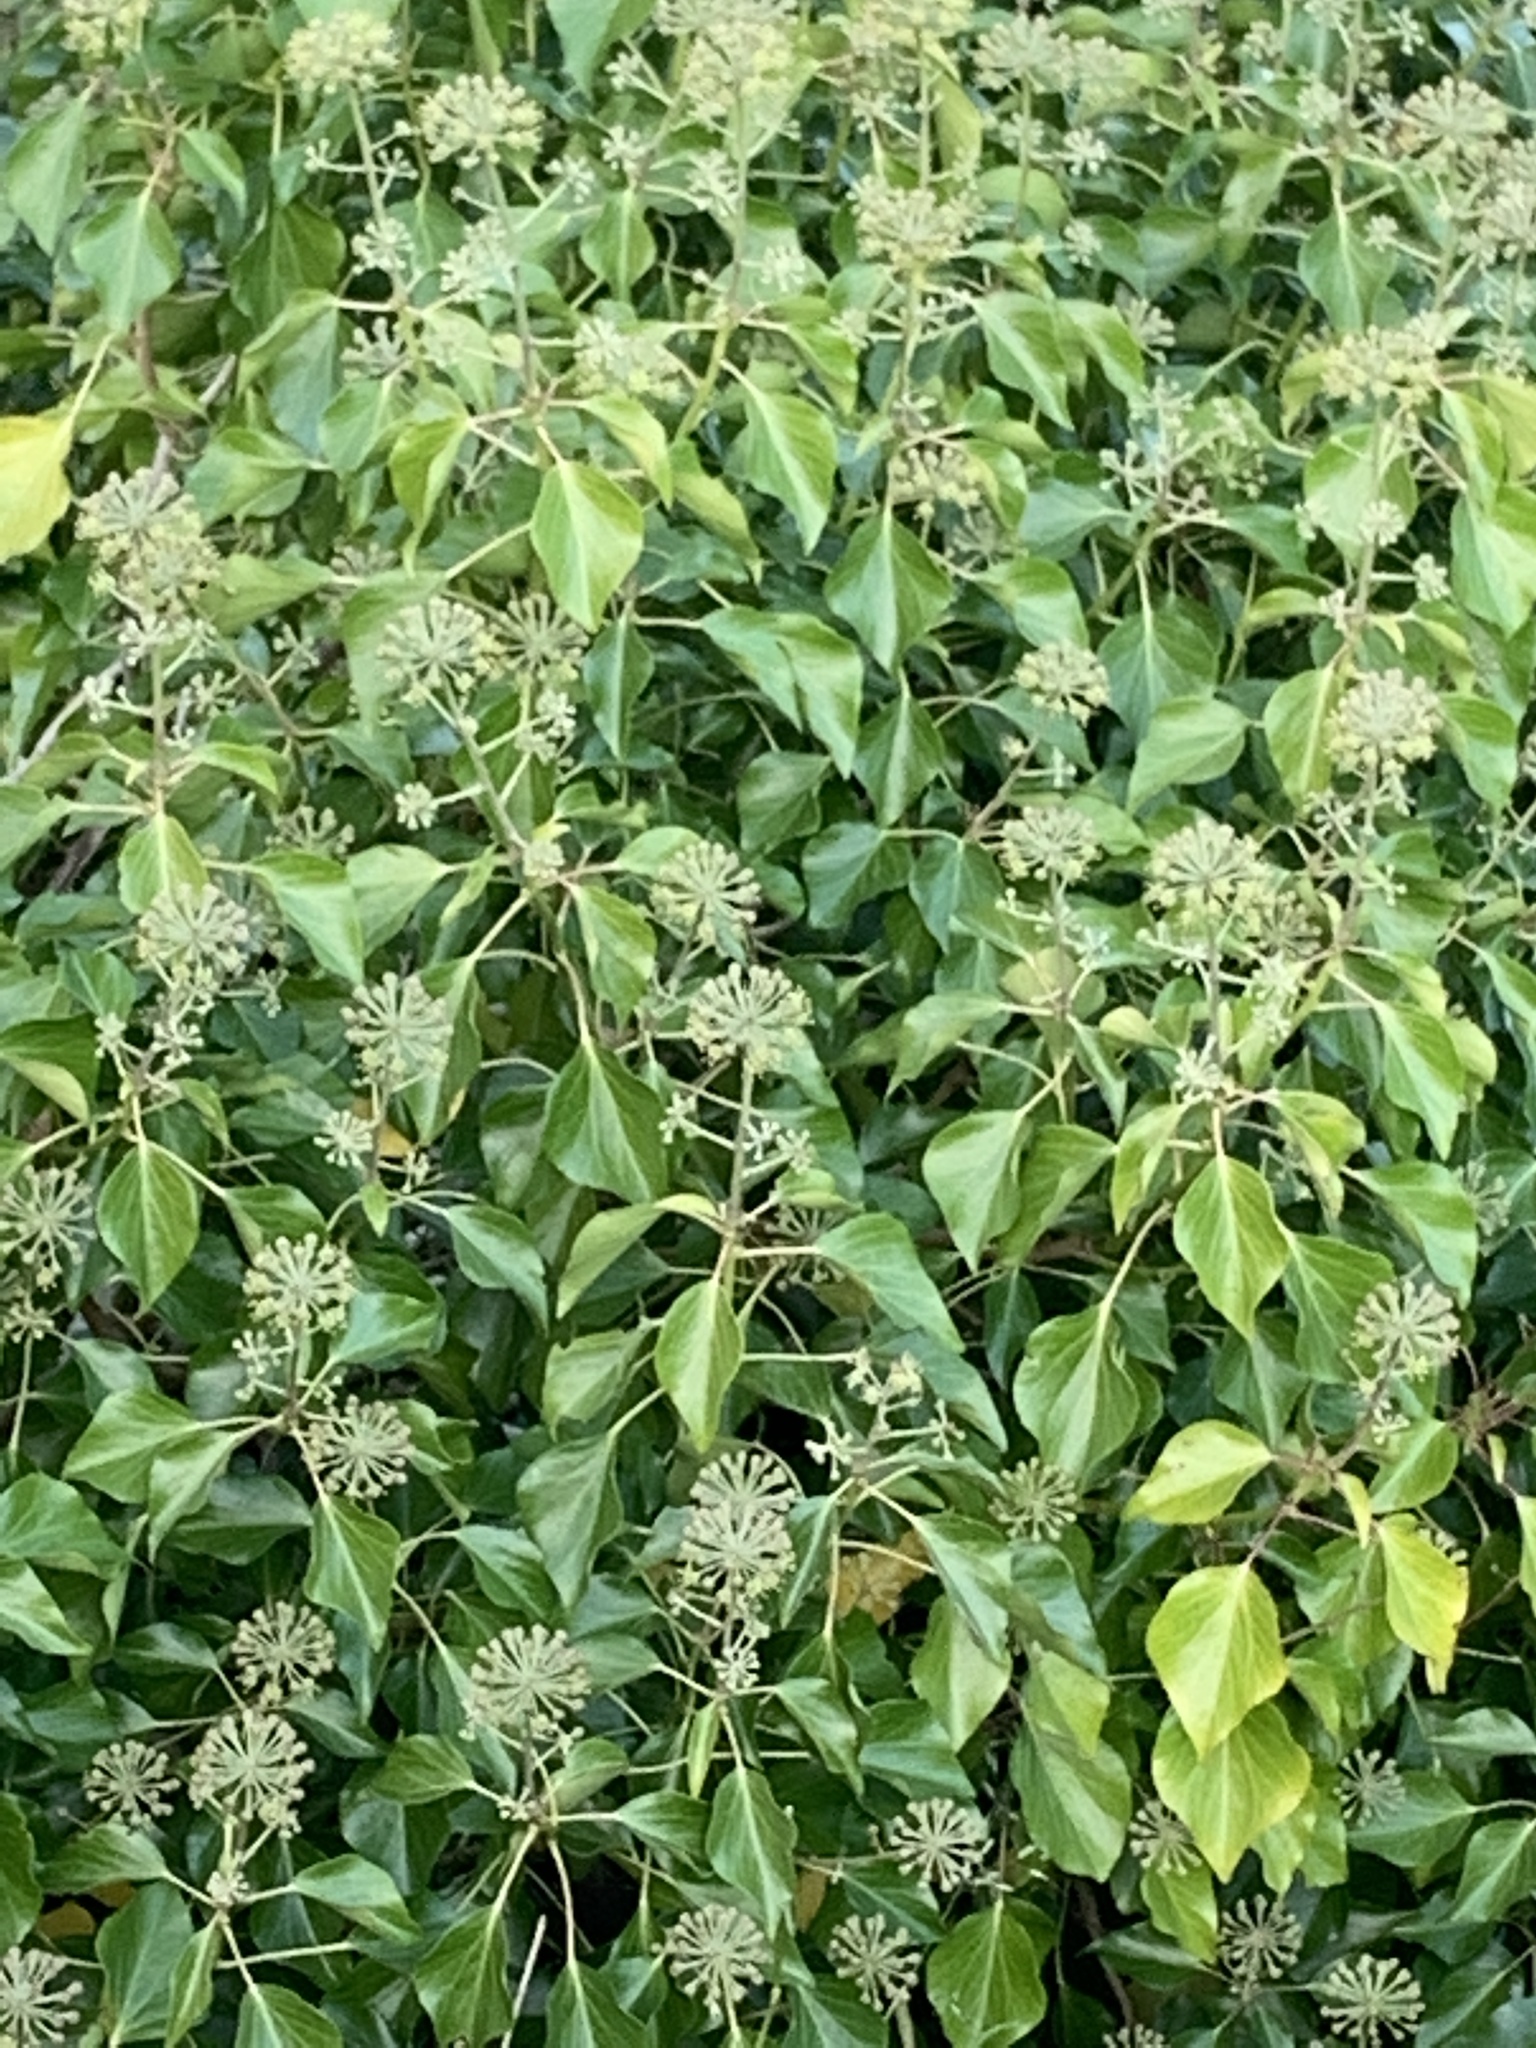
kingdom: Plantae
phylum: Tracheophyta
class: Magnoliopsida
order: Apiales
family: Araliaceae
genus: Hedera
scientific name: Hedera helix
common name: Ivy
